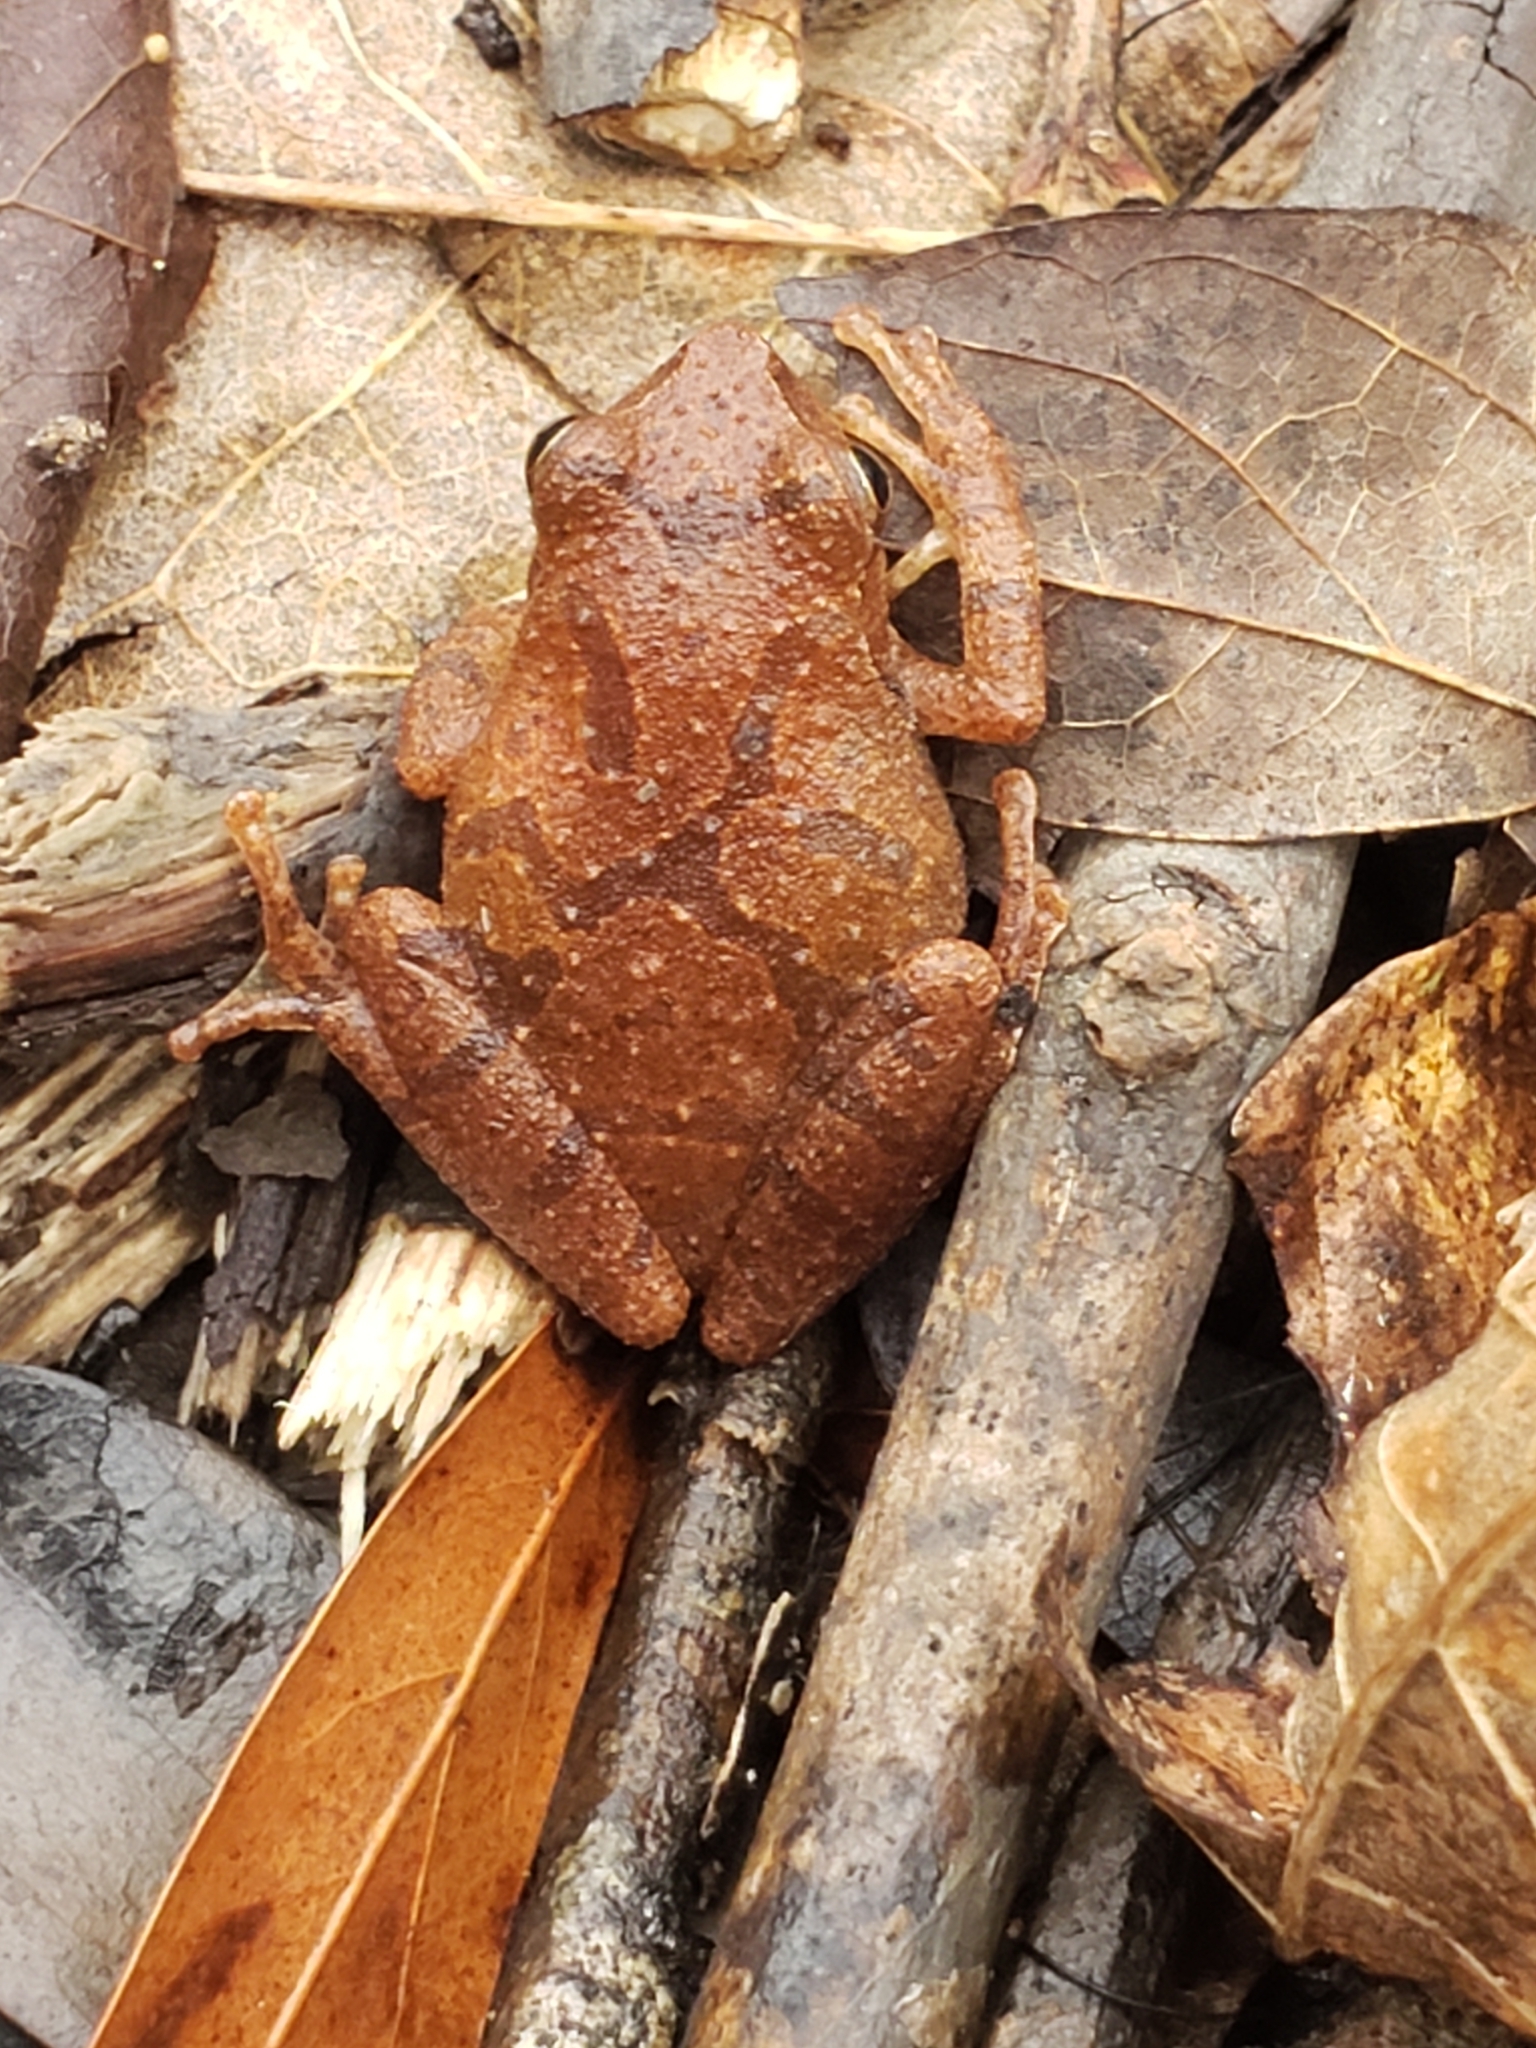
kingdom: Animalia
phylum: Chordata
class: Amphibia
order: Anura
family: Hylidae
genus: Pseudacris
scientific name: Pseudacris crucifer
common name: Spring peeper
